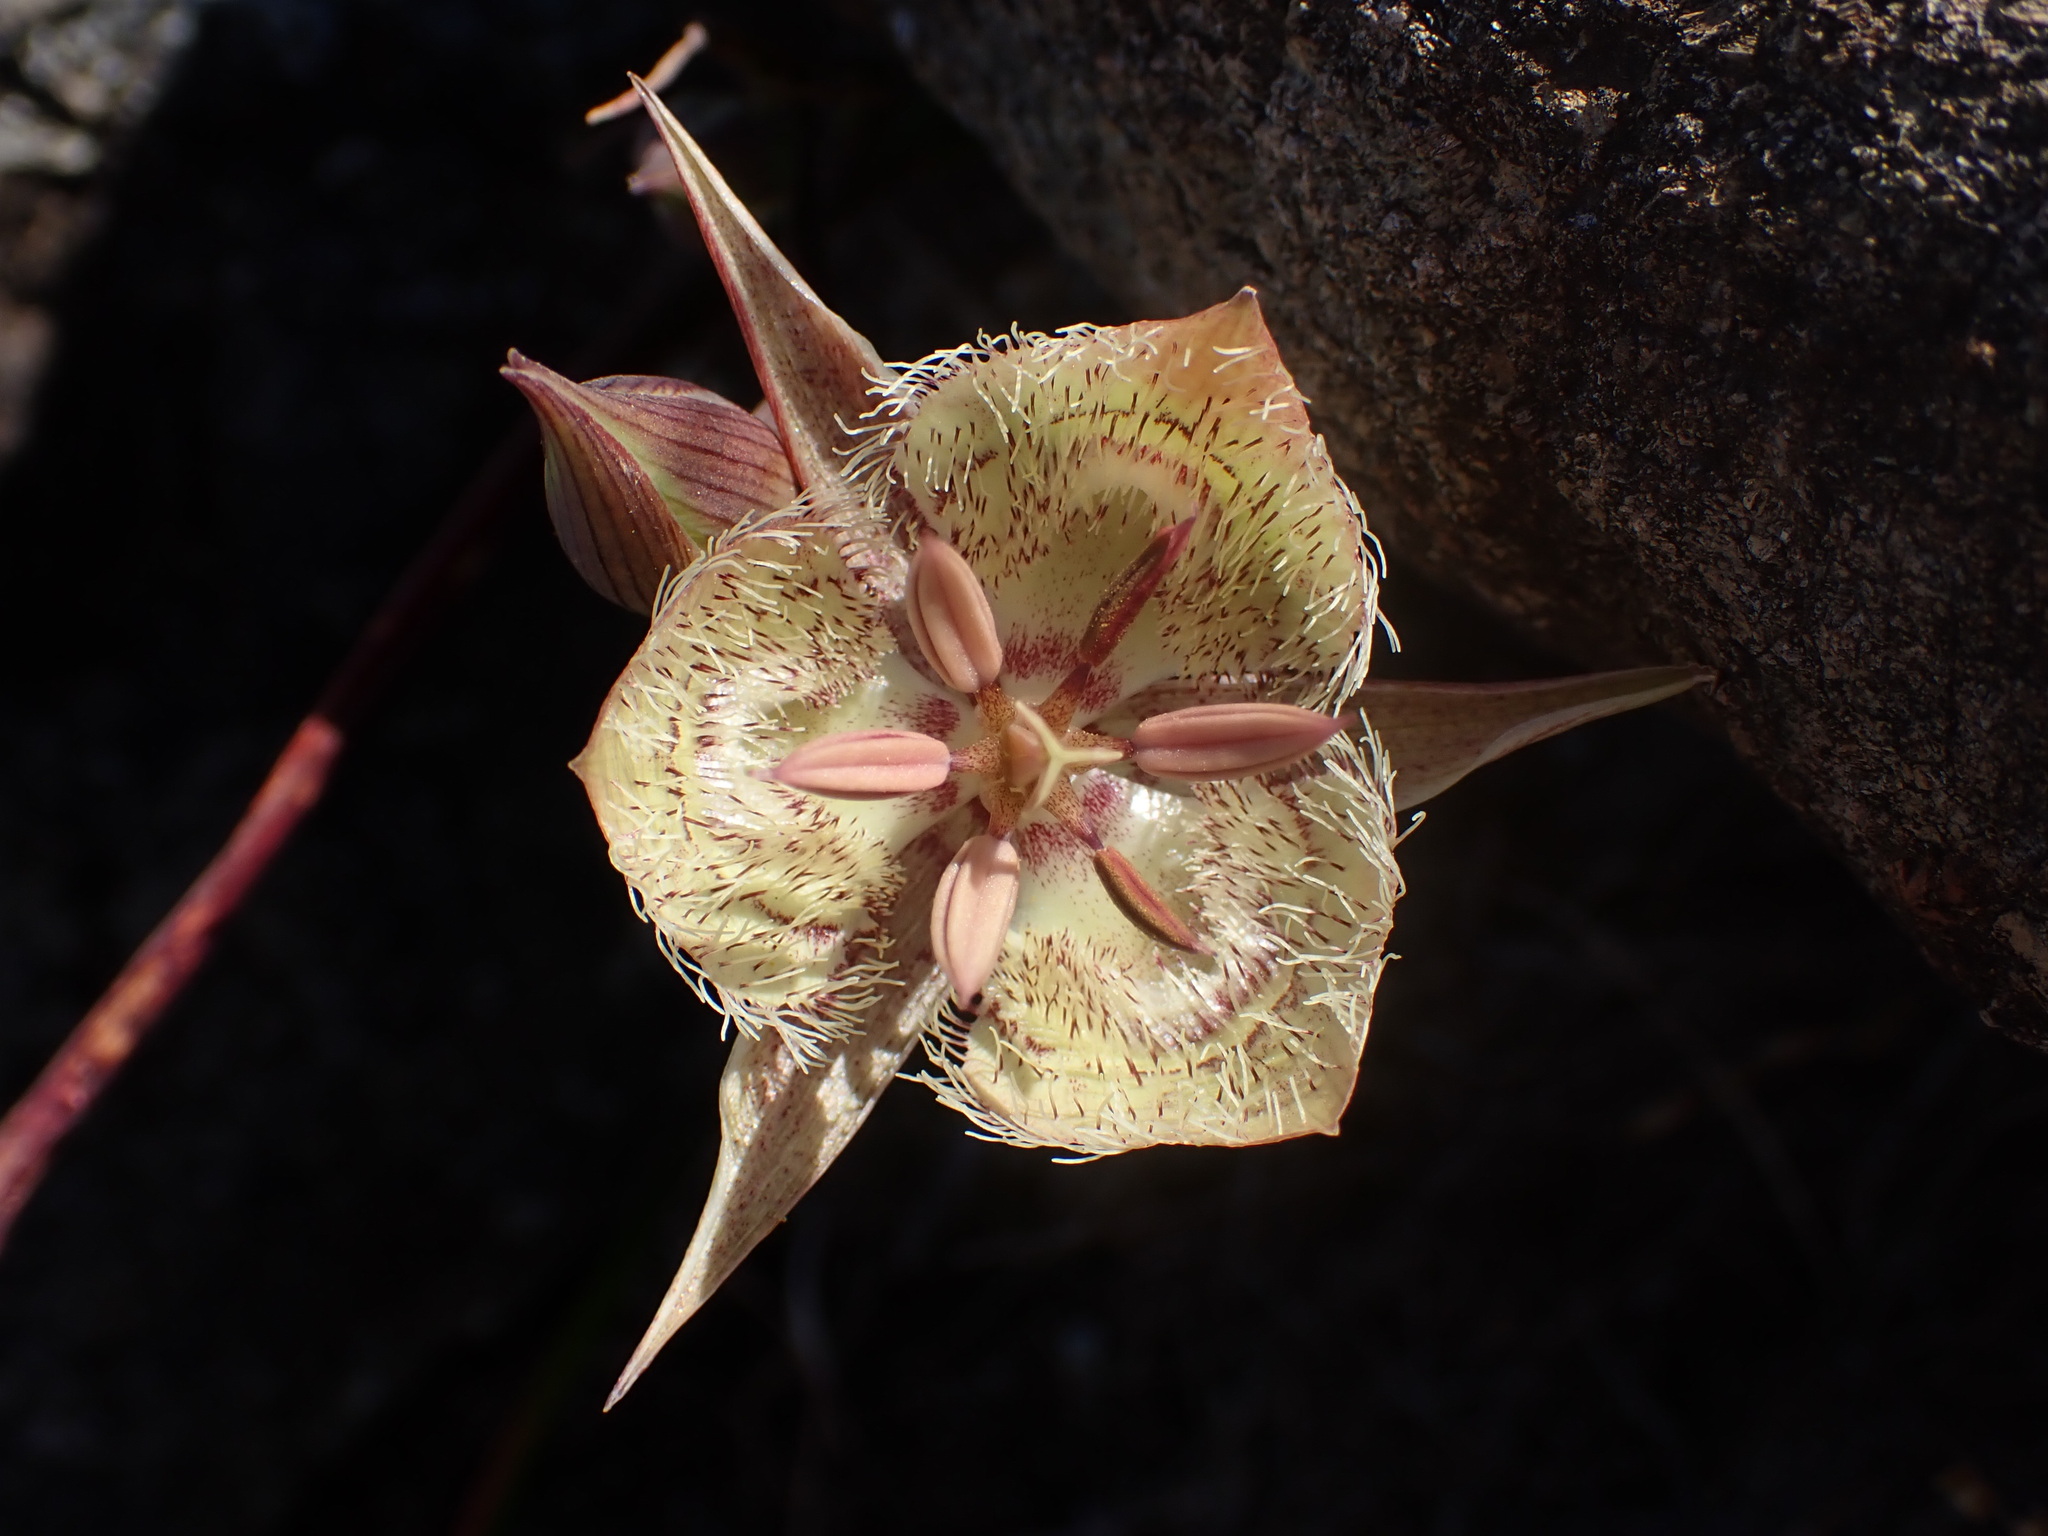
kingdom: Plantae
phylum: Tracheophyta
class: Liliopsida
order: Liliales
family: Liliaceae
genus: Calochortus
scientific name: Calochortus tiburonensis
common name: Tiburon mariposa-lily
